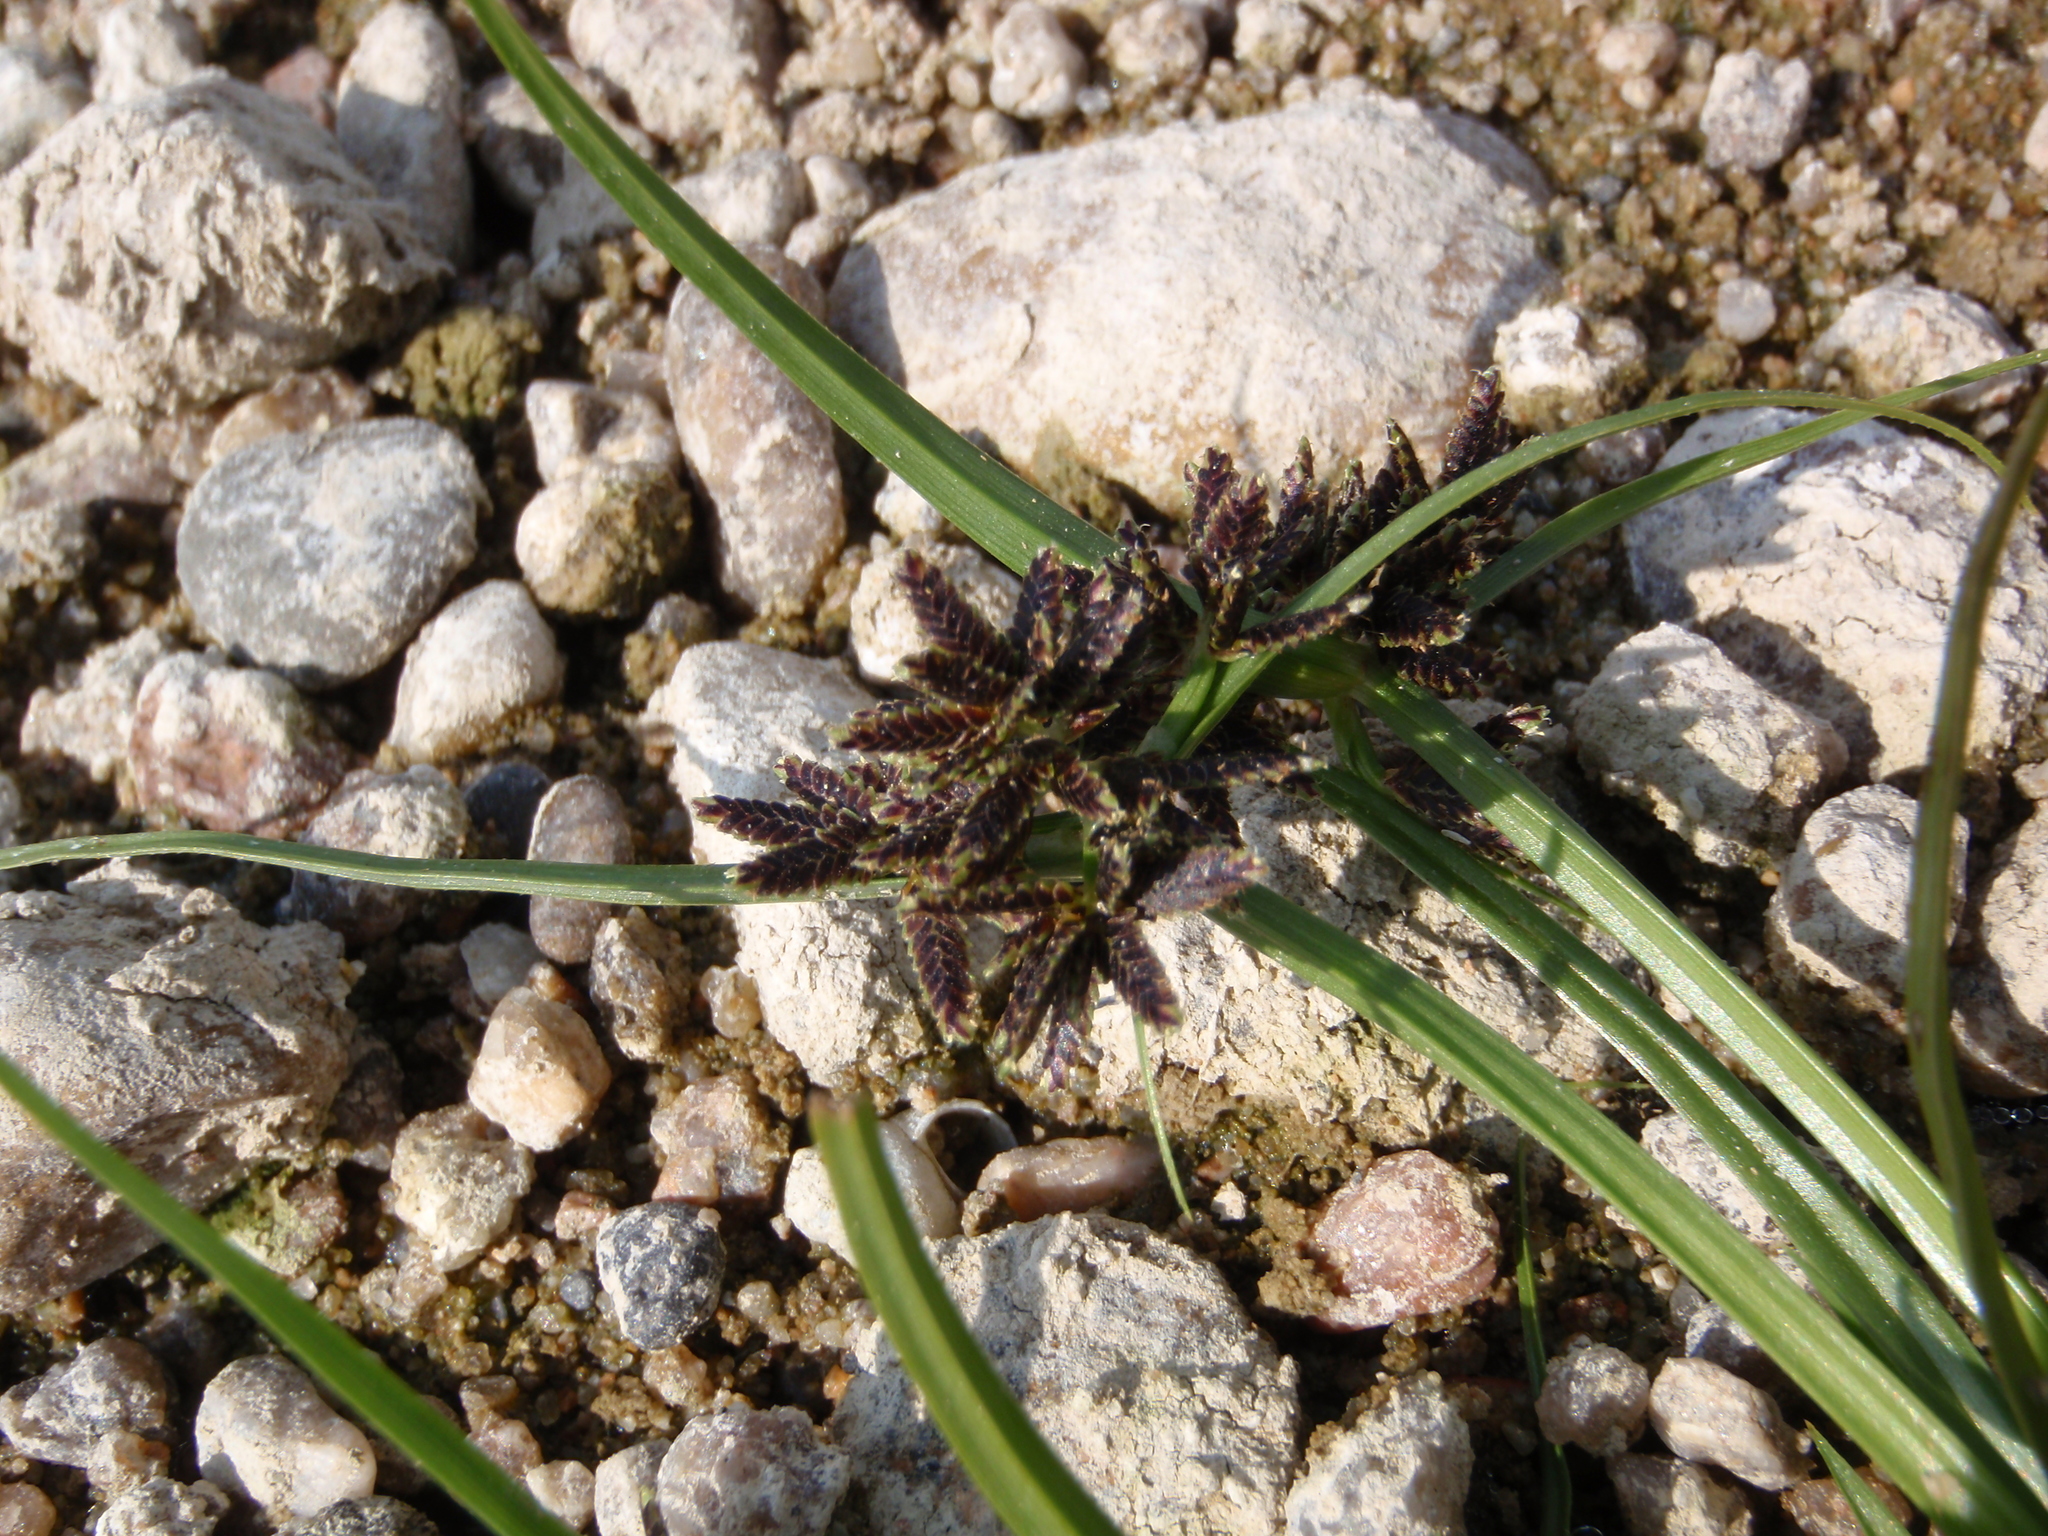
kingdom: Plantae
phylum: Tracheophyta
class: Liliopsida
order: Poales
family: Cyperaceae
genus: Cyperus
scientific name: Cyperus fuscus
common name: Brown galingale
